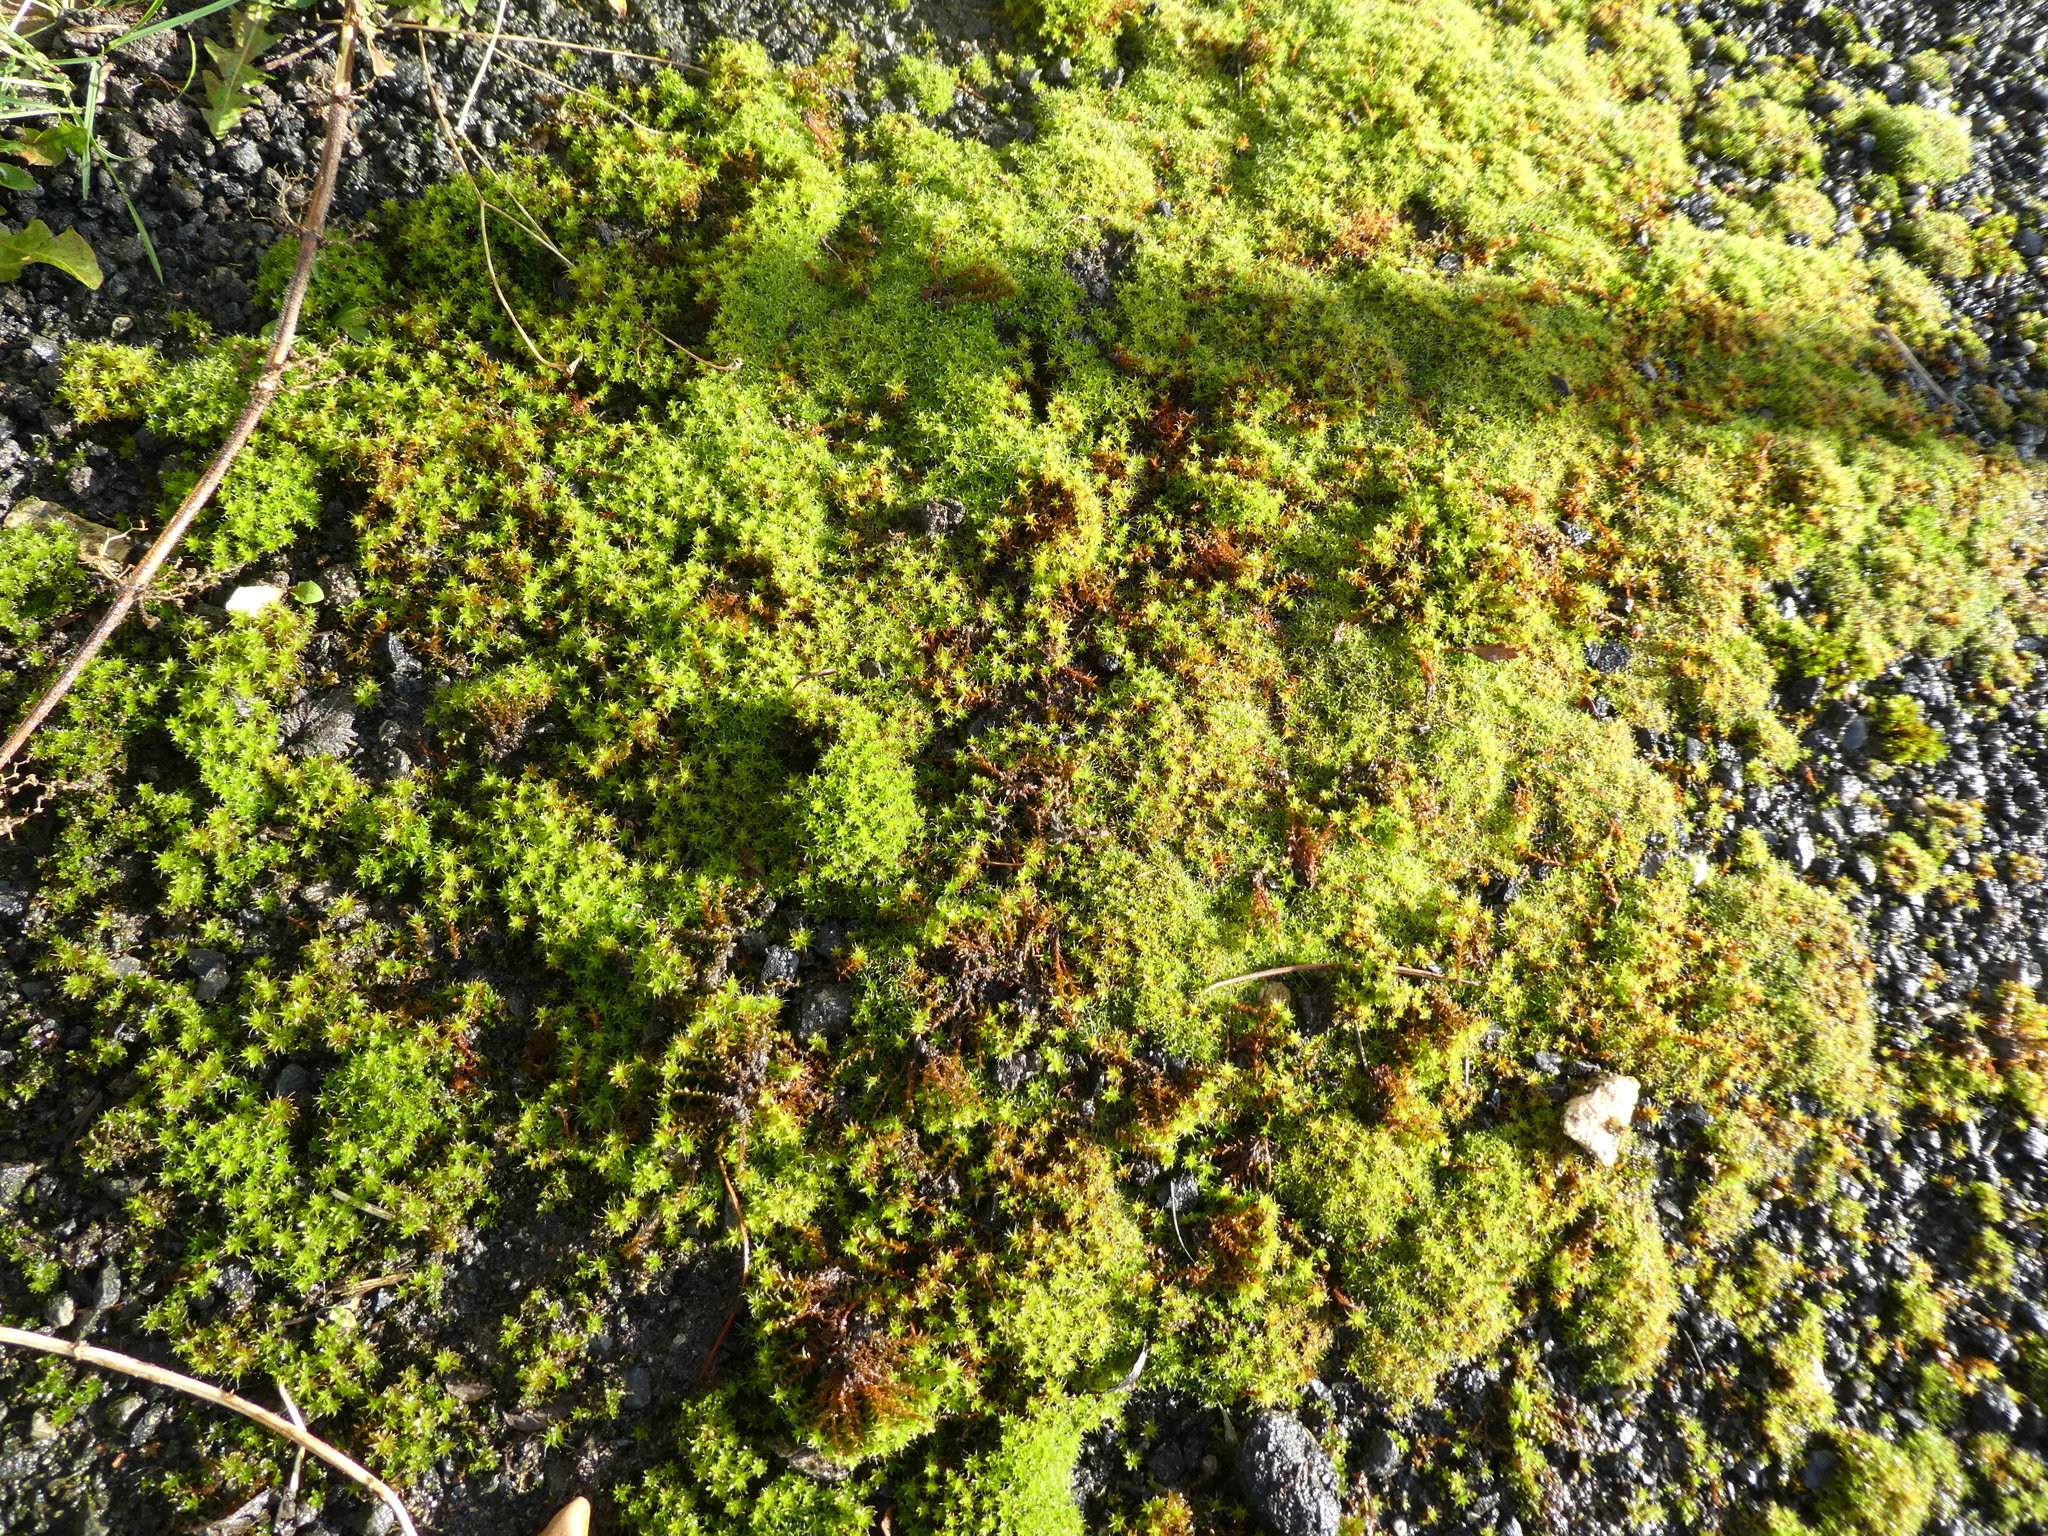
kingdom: Plantae
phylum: Bryophyta
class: Bryopsida
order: Pottiales
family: Pottiaceae
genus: Syntrichia
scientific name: Syntrichia montana
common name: Intermediate screw-moss
